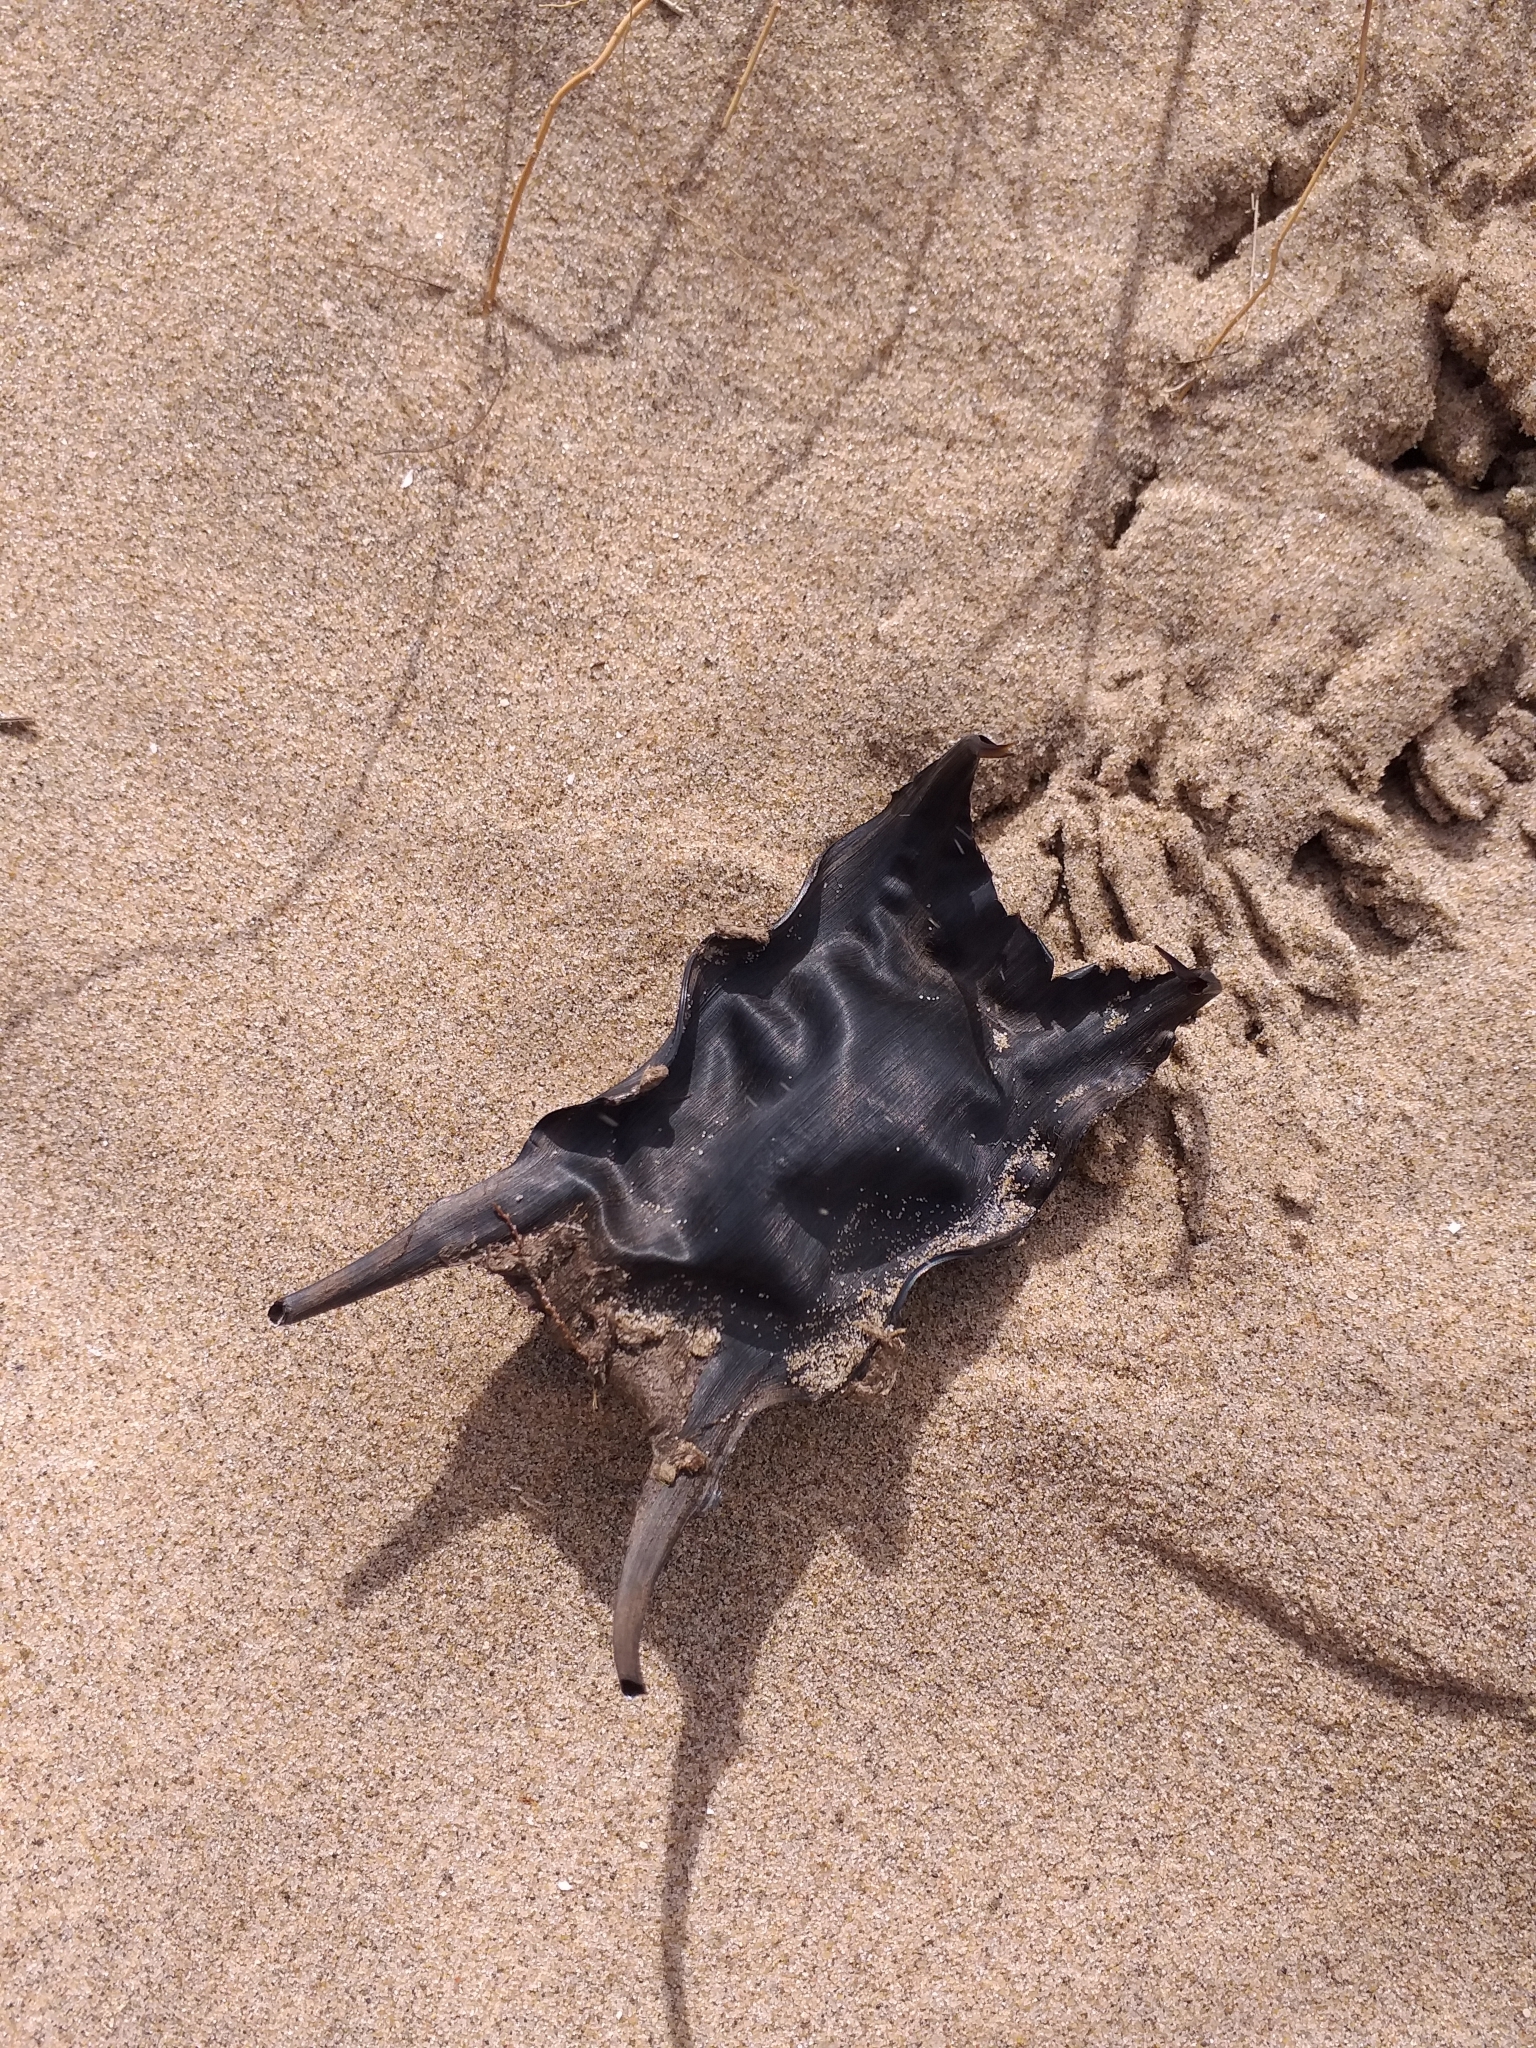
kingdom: Animalia
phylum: Chordata
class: Elasmobranchii
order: Rajiformes
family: Rajidae
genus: Raja
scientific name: Raja clavata
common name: Thornback ray
